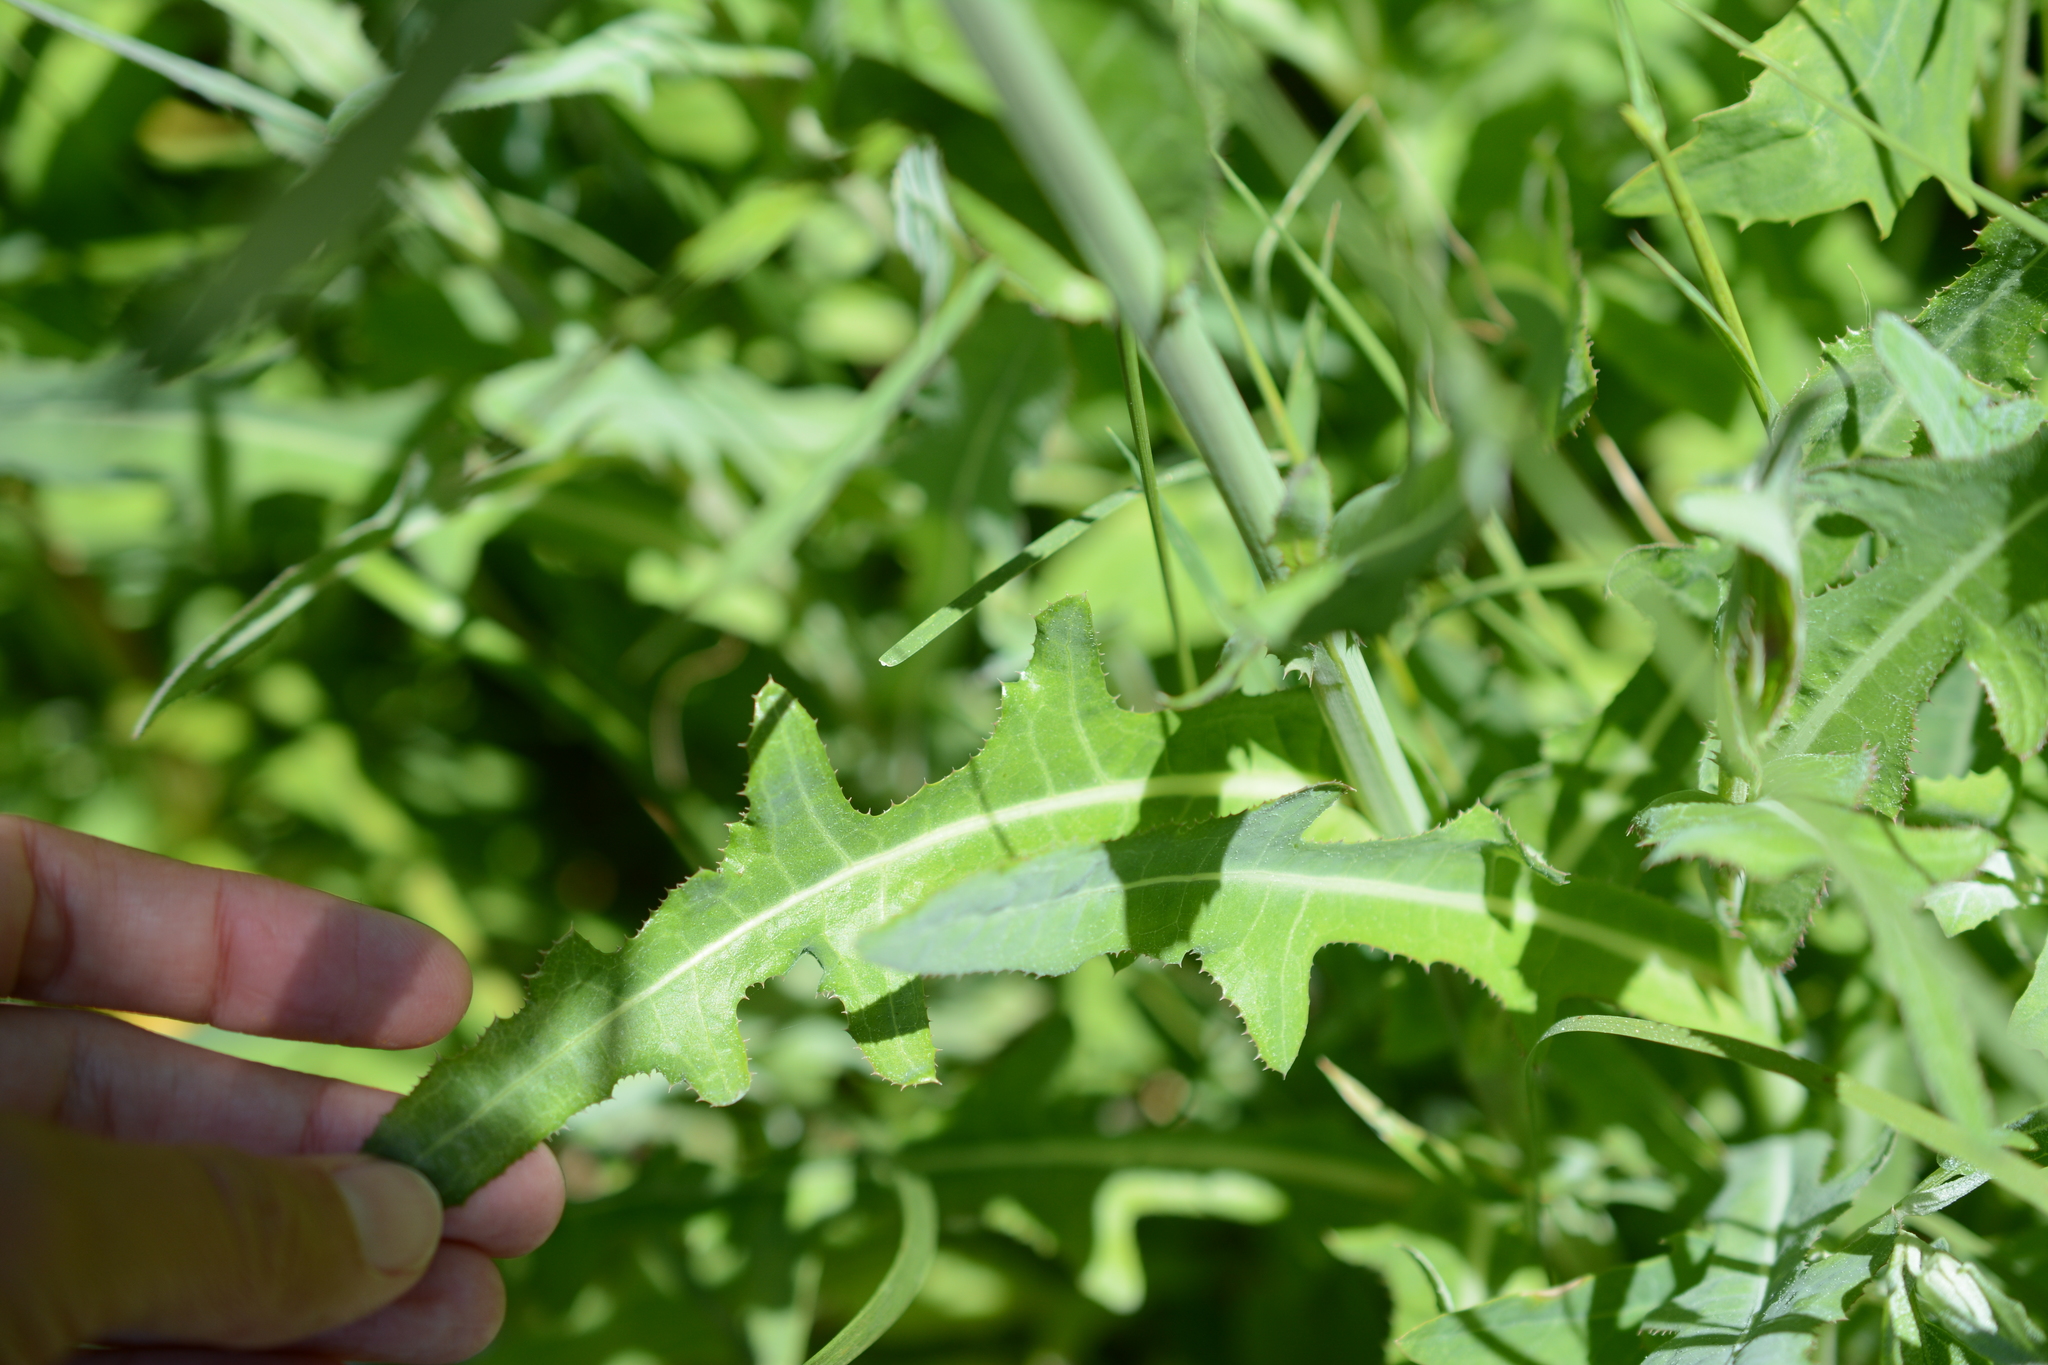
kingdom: Plantae
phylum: Tracheophyta
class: Magnoliopsida
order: Asterales
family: Asteraceae
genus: Sonchus
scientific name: Sonchus arvensis
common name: Perennial sow-thistle
